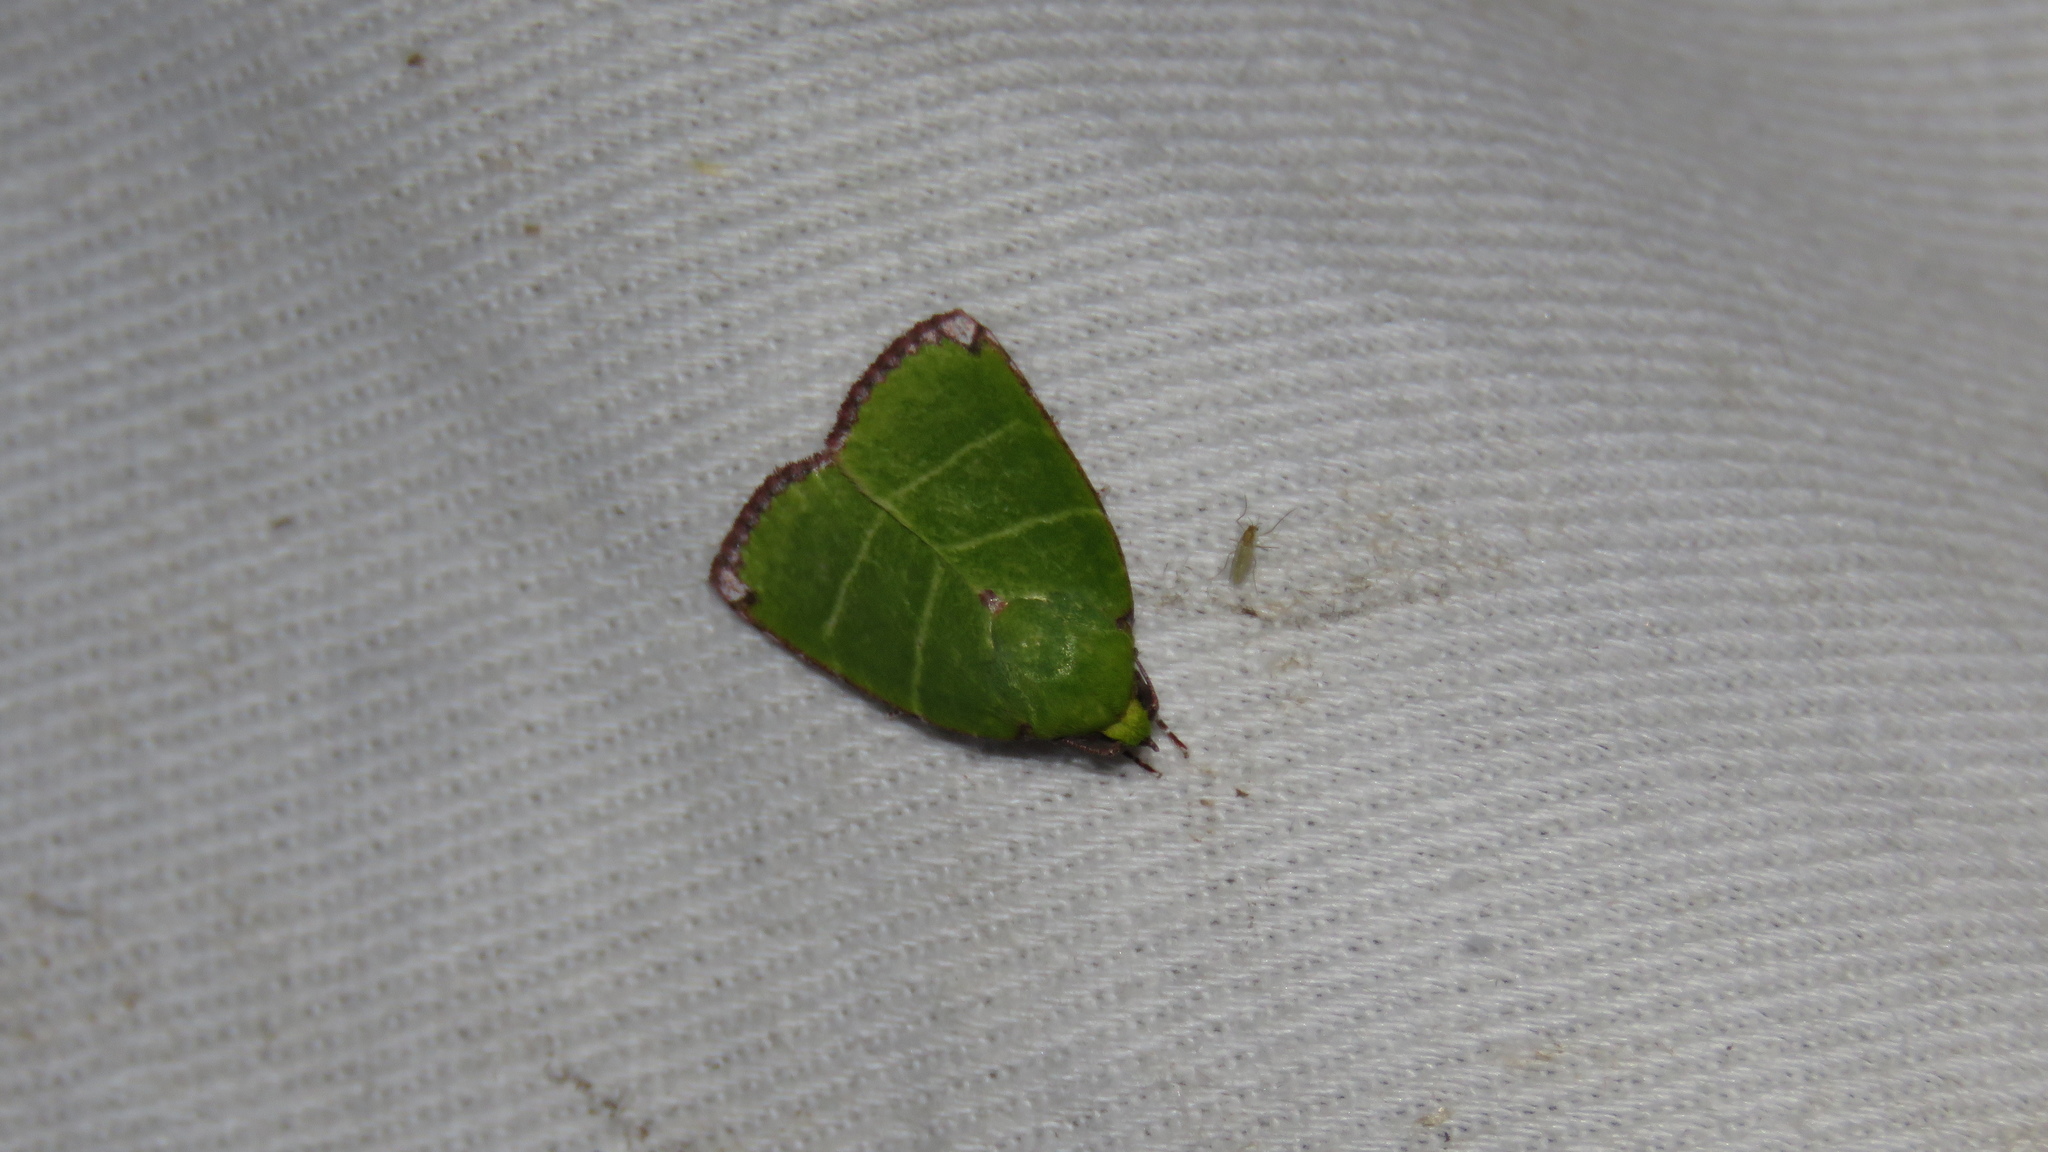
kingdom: Animalia
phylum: Arthropoda
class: Insecta
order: Lepidoptera
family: Nolidae
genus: Paracrama
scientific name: Paracrama dulcissima
